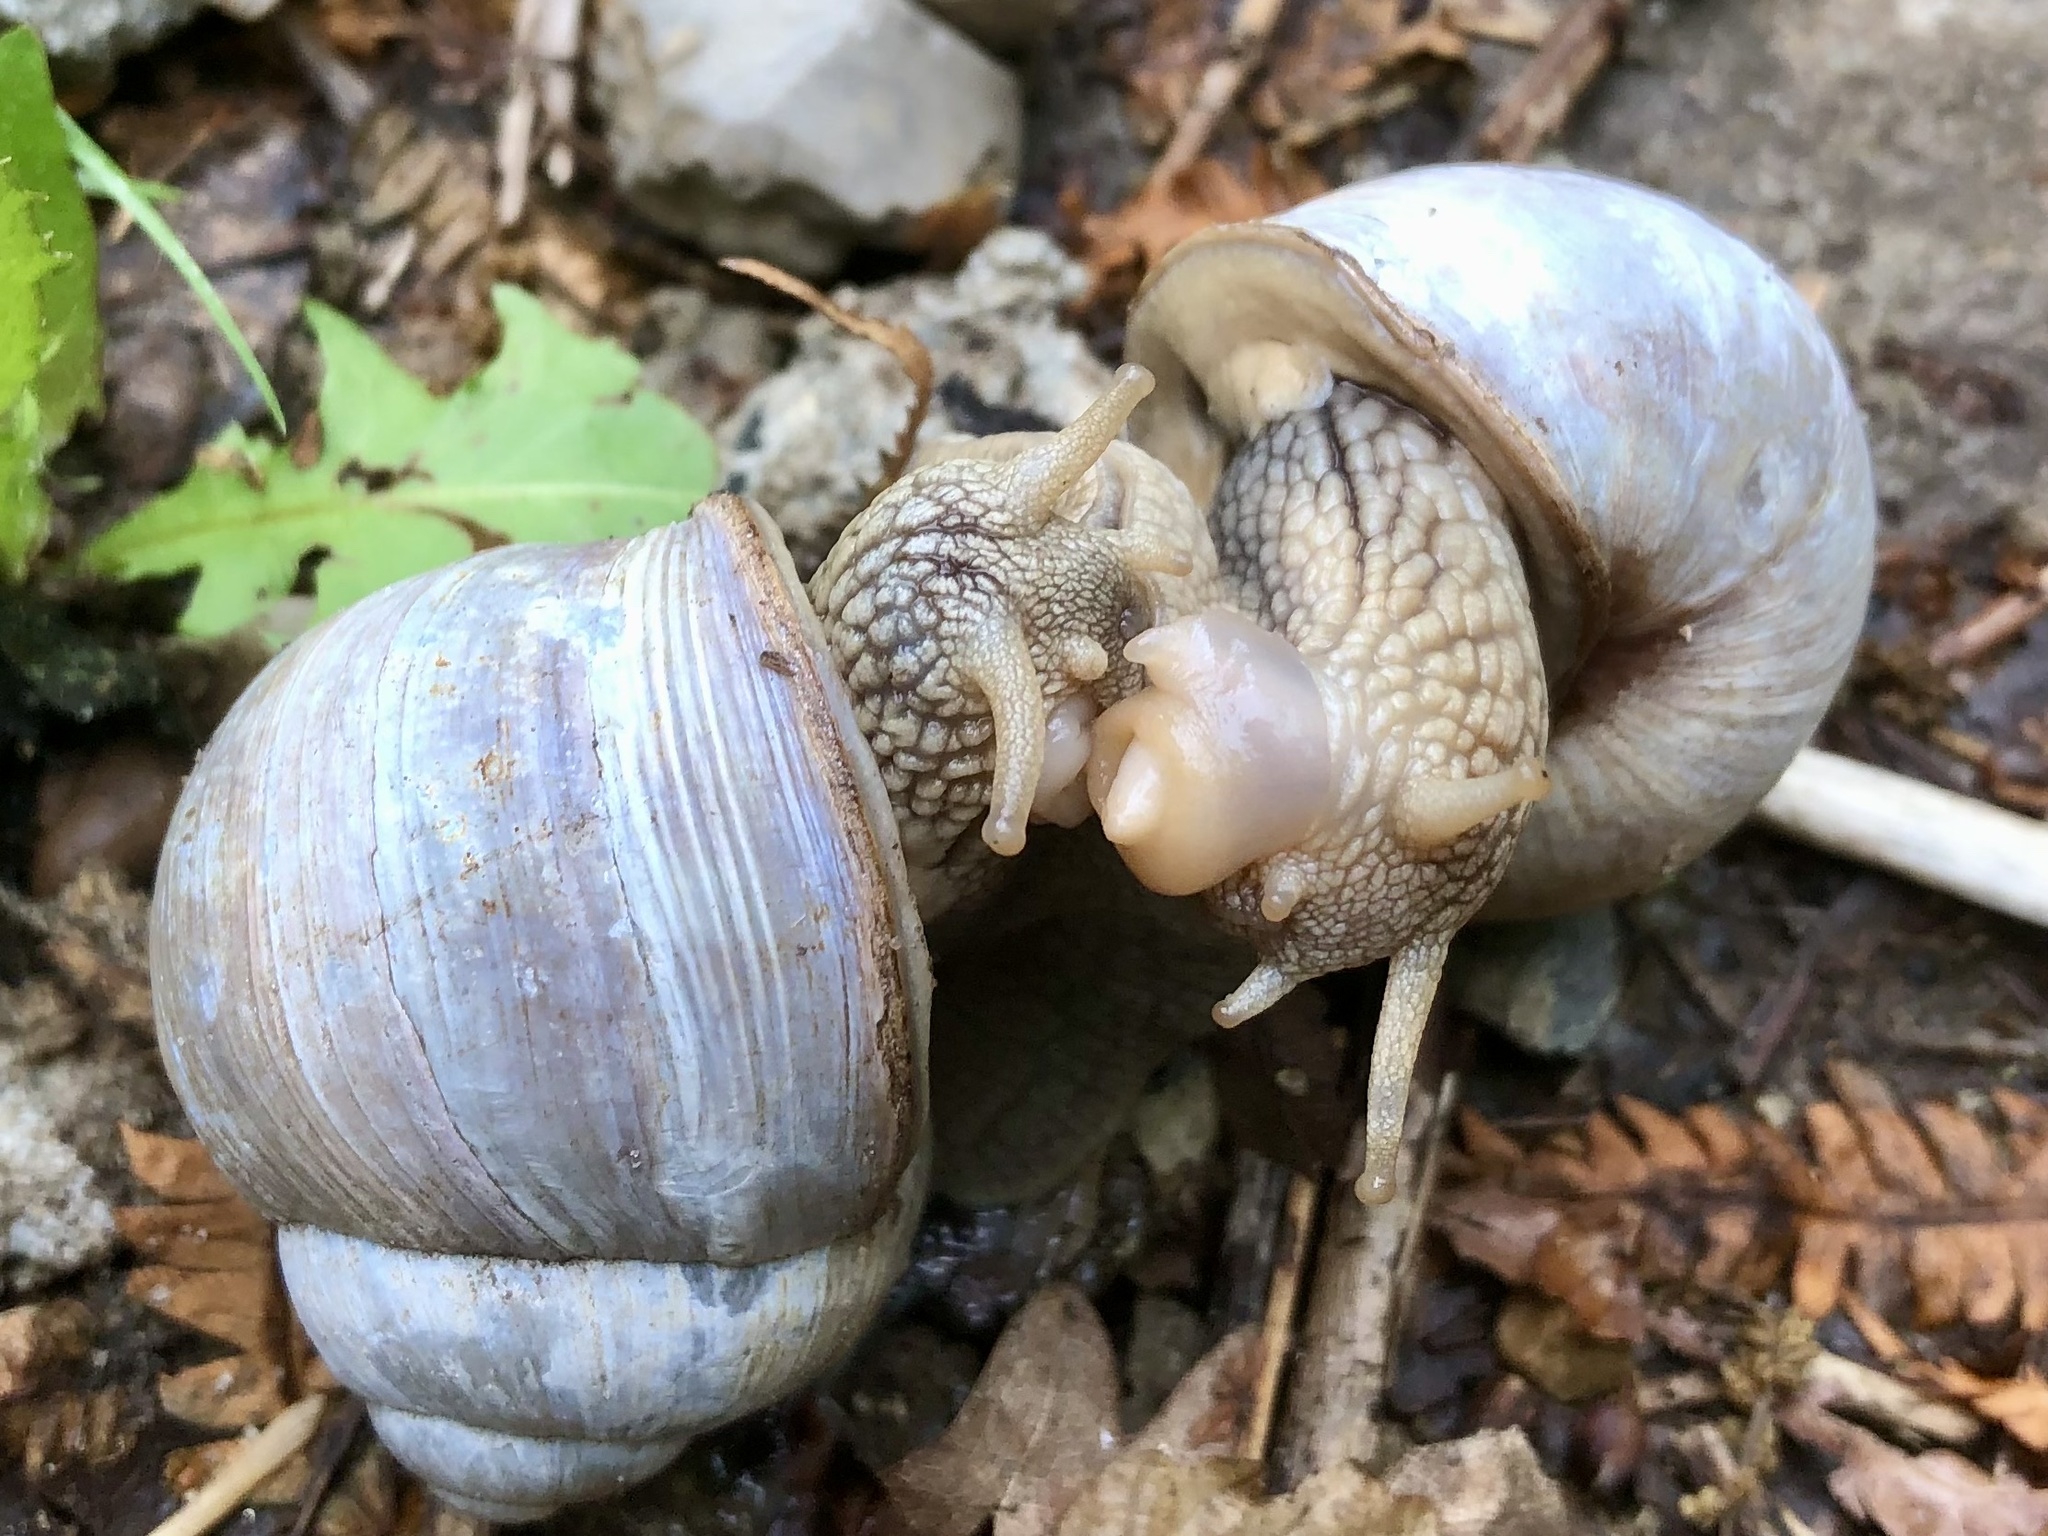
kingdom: Animalia
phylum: Mollusca
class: Gastropoda
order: Stylommatophora
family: Helicidae
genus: Helix
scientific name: Helix pomatia
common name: Roman snail
